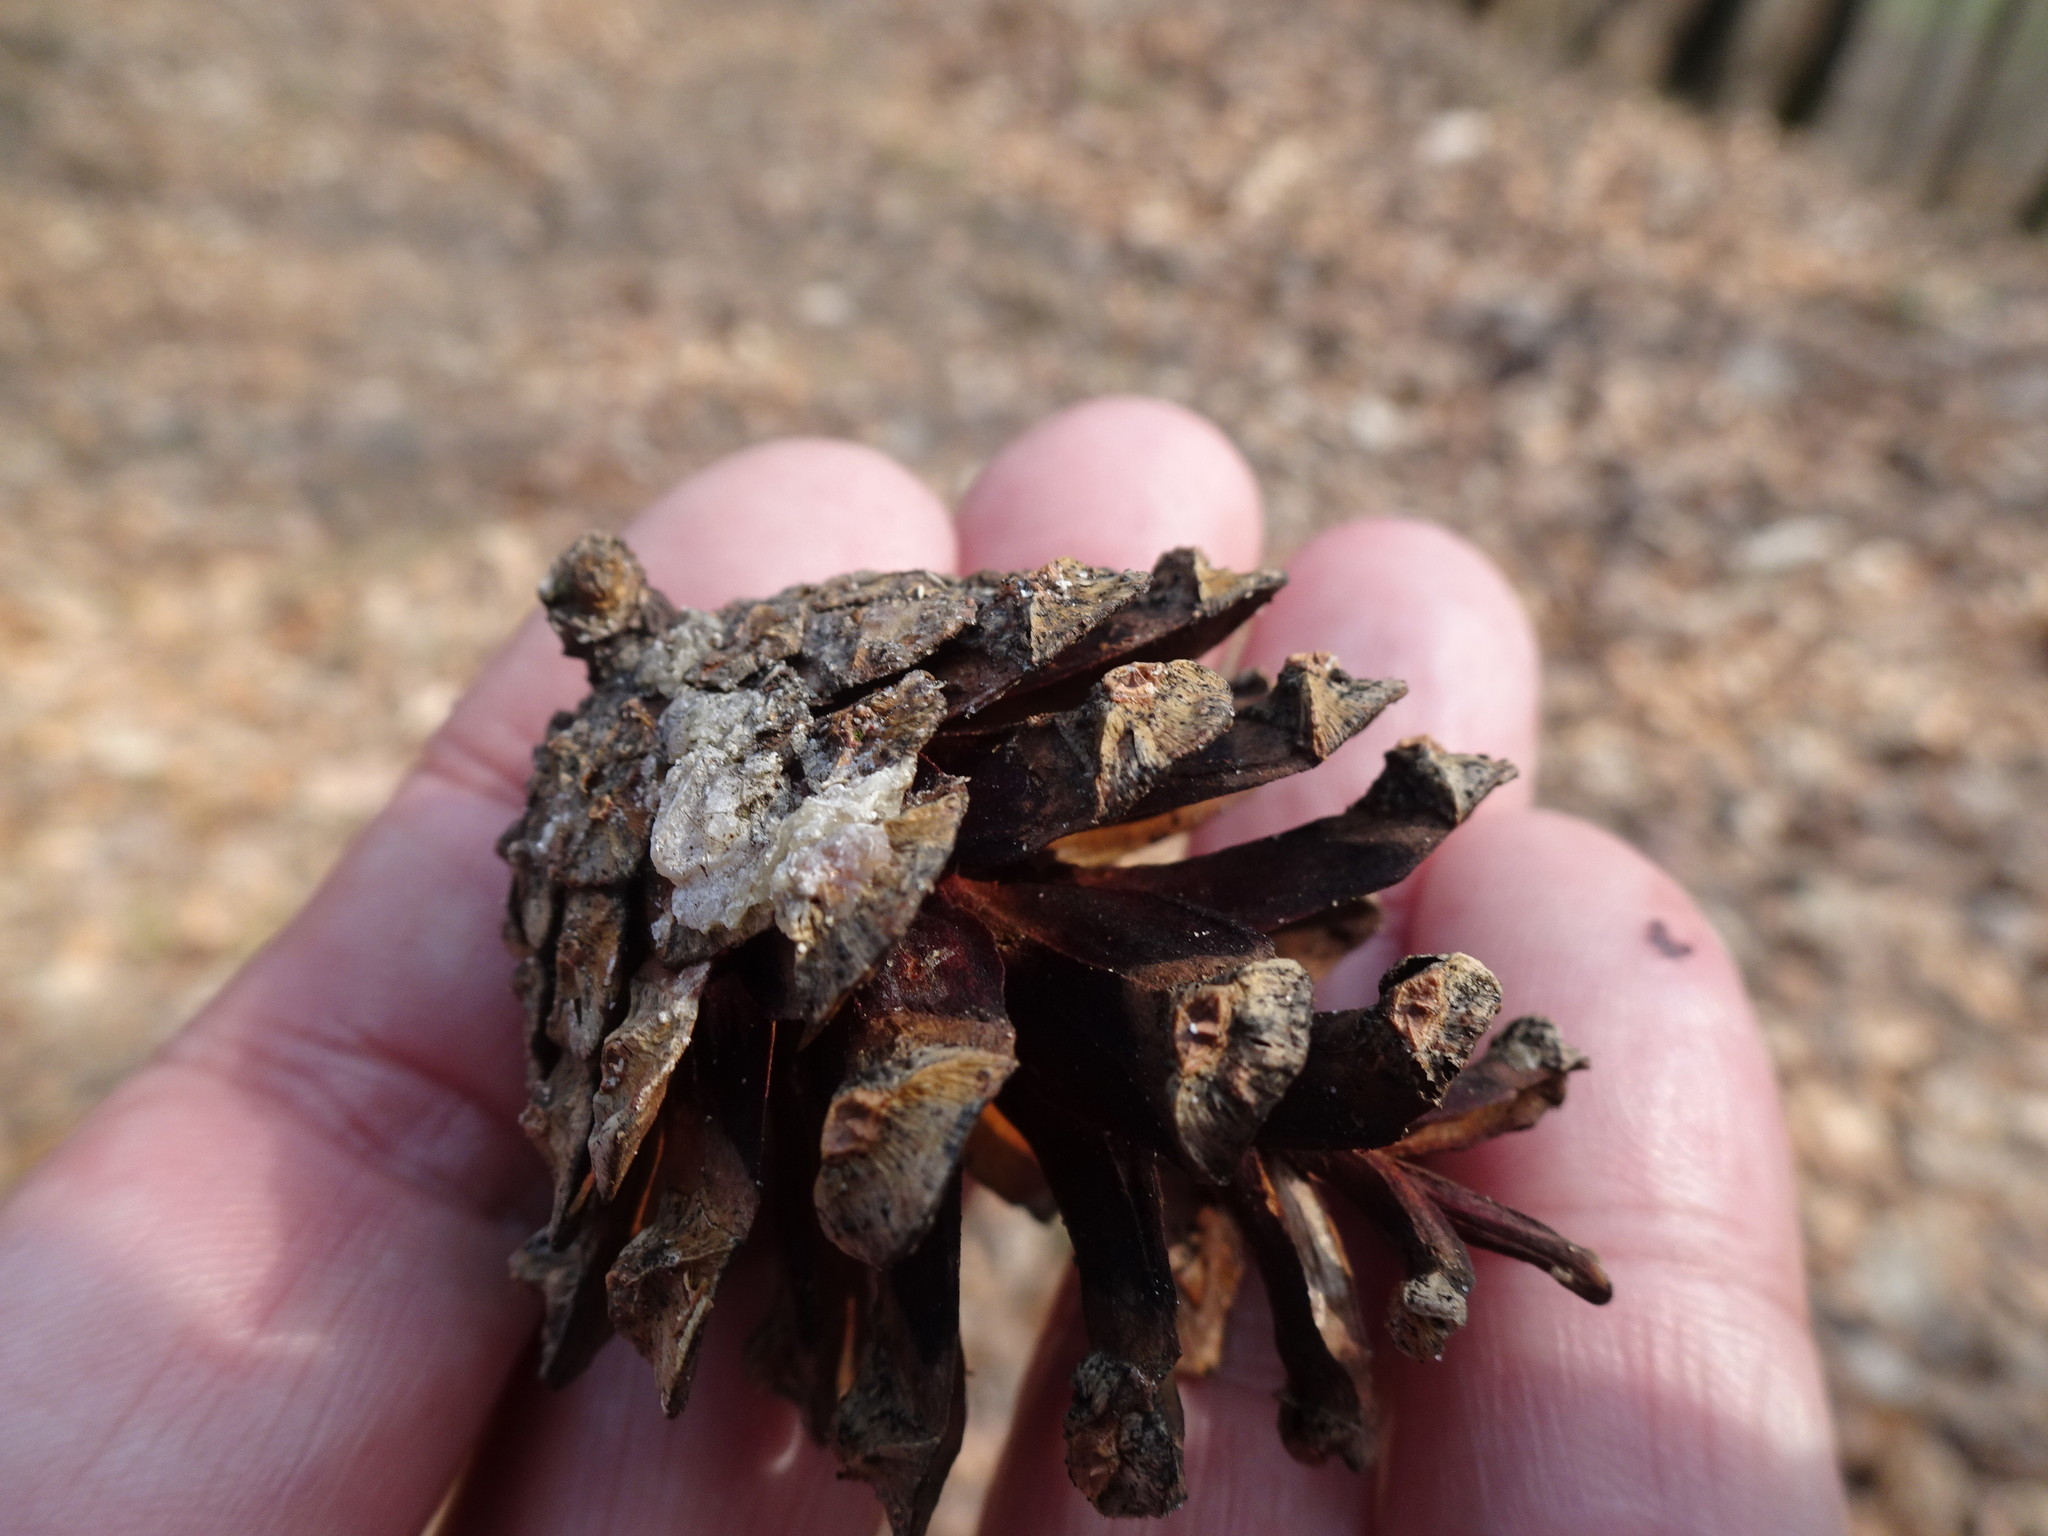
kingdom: Plantae
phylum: Tracheophyta
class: Pinopsida
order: Pinales
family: Pinaceae
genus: Pinus
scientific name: Pinus sylvestris
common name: Scots pine
